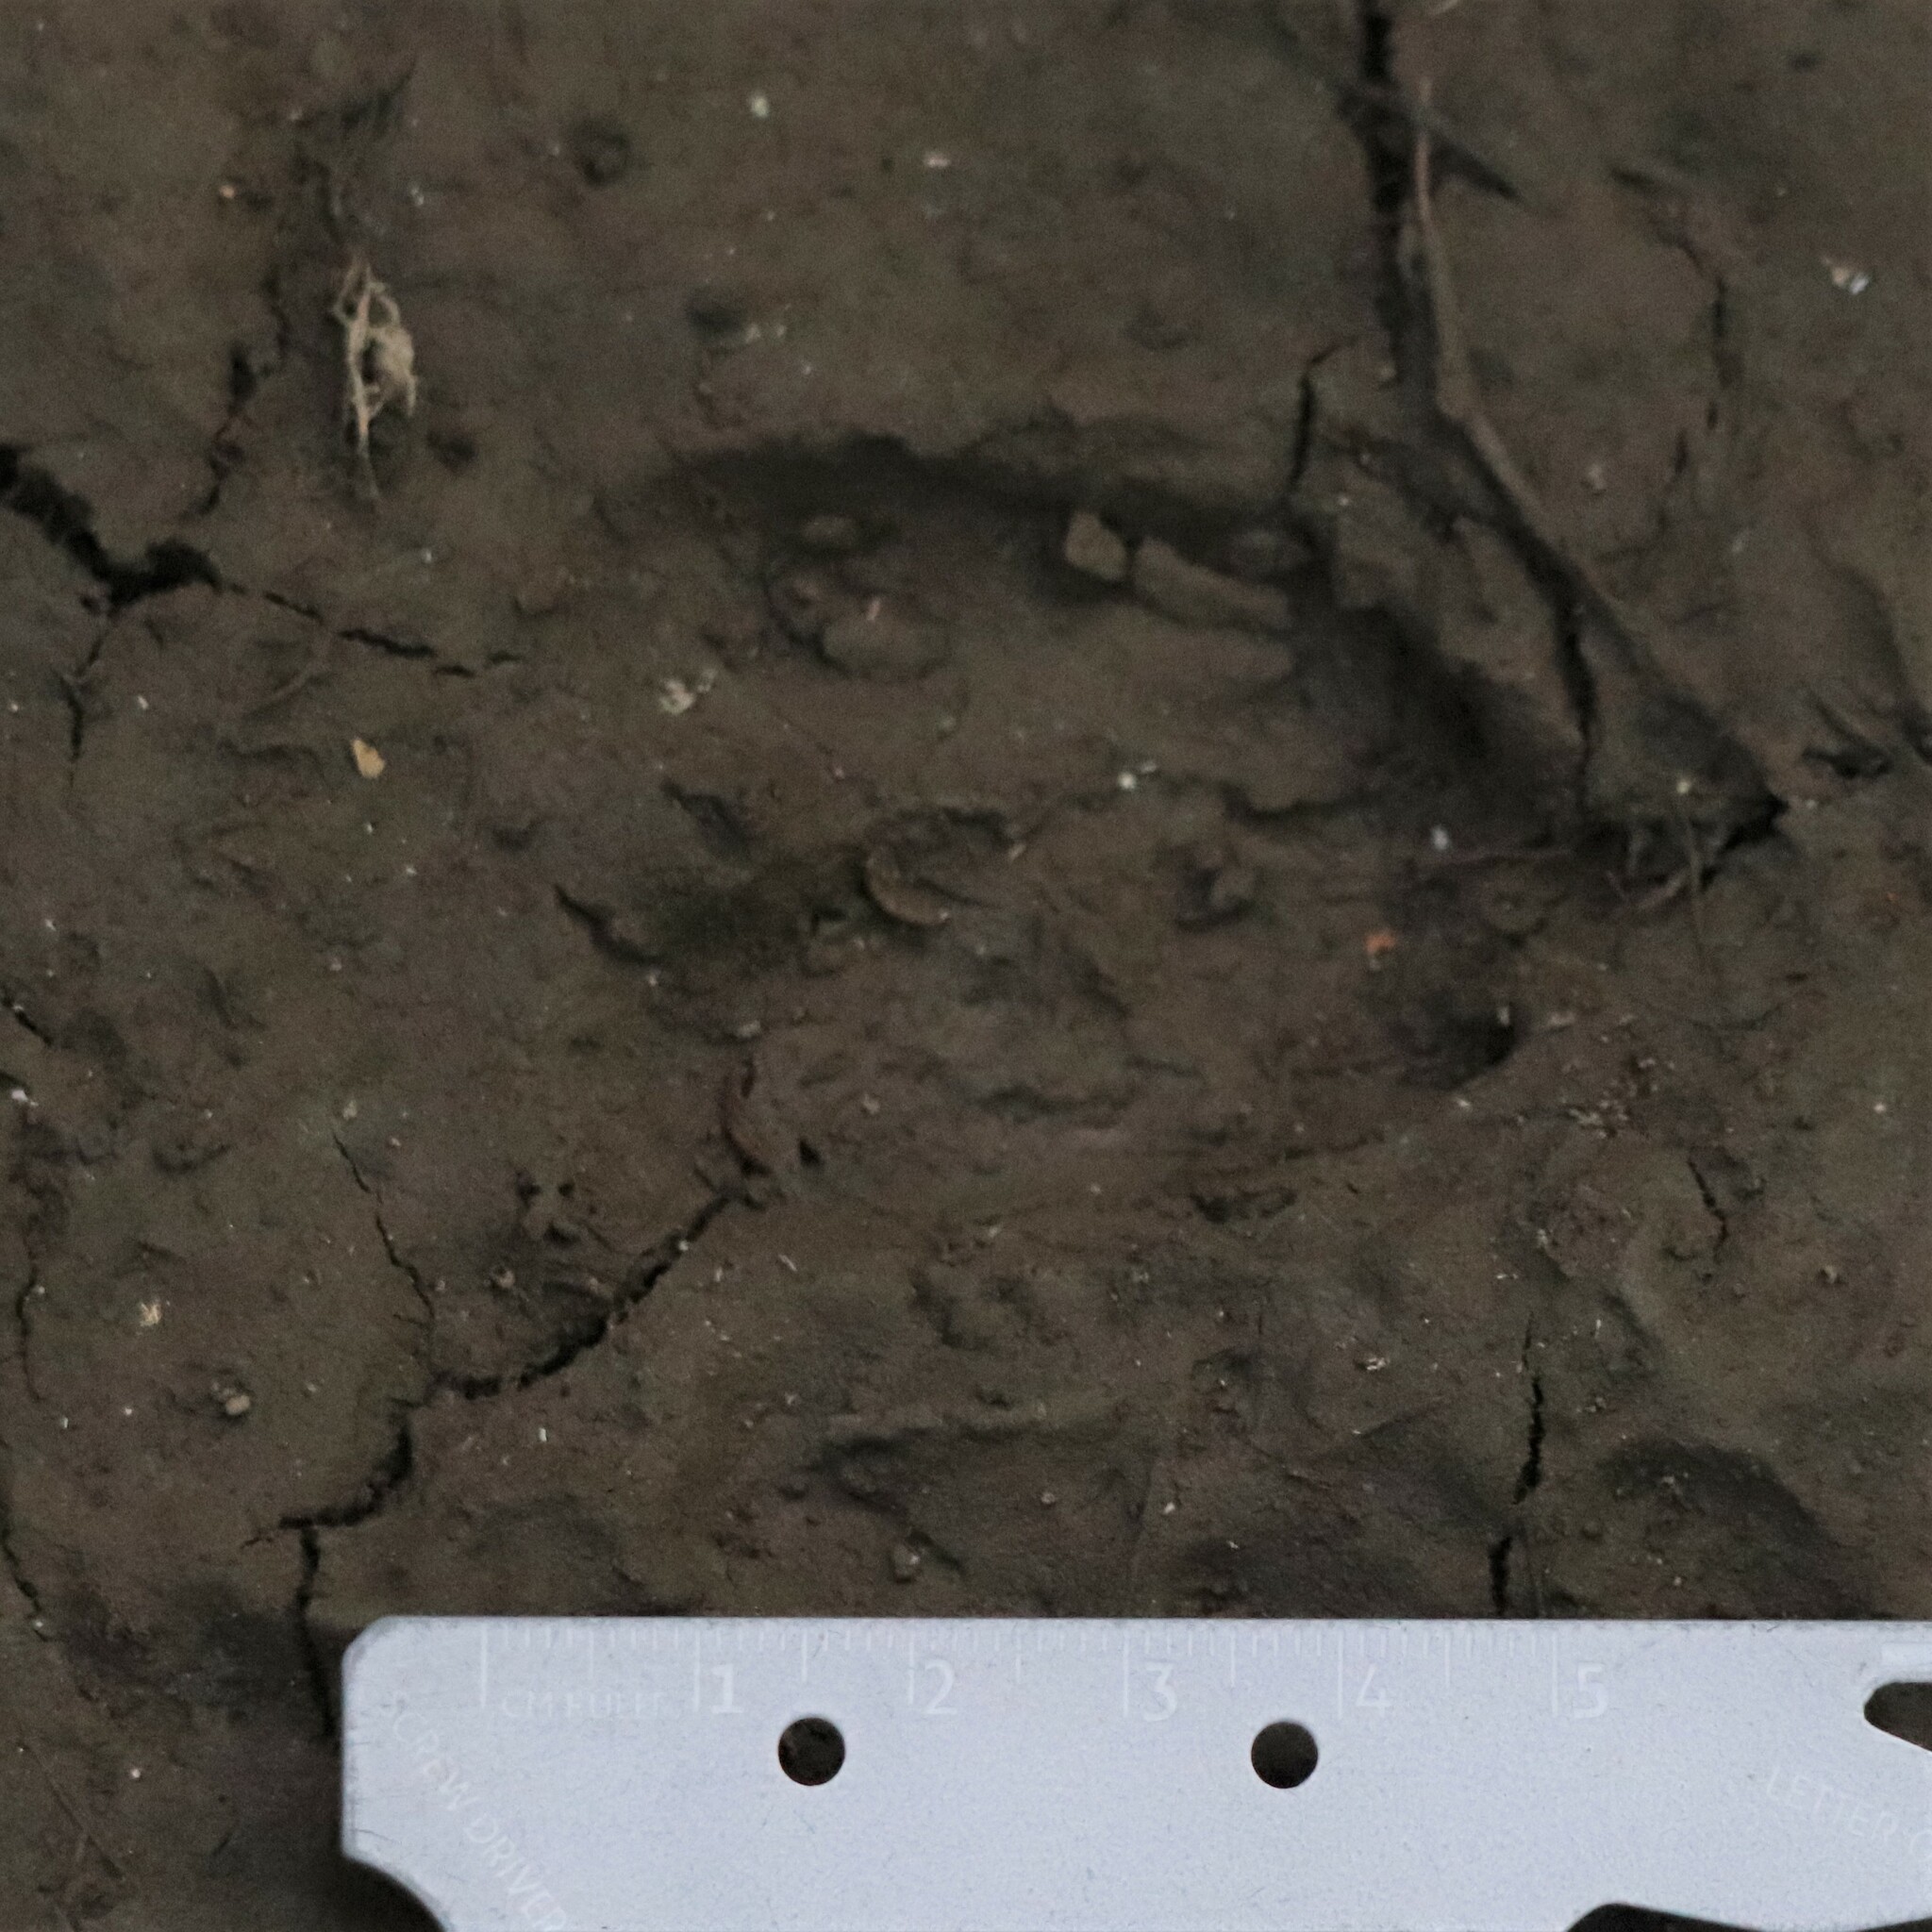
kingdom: Animalia
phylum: Chordata
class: Mammalia
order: Artiodactyla
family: Cervidae
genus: Odocoileus
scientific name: Odocoileus virginianus
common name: White-tailed deer
